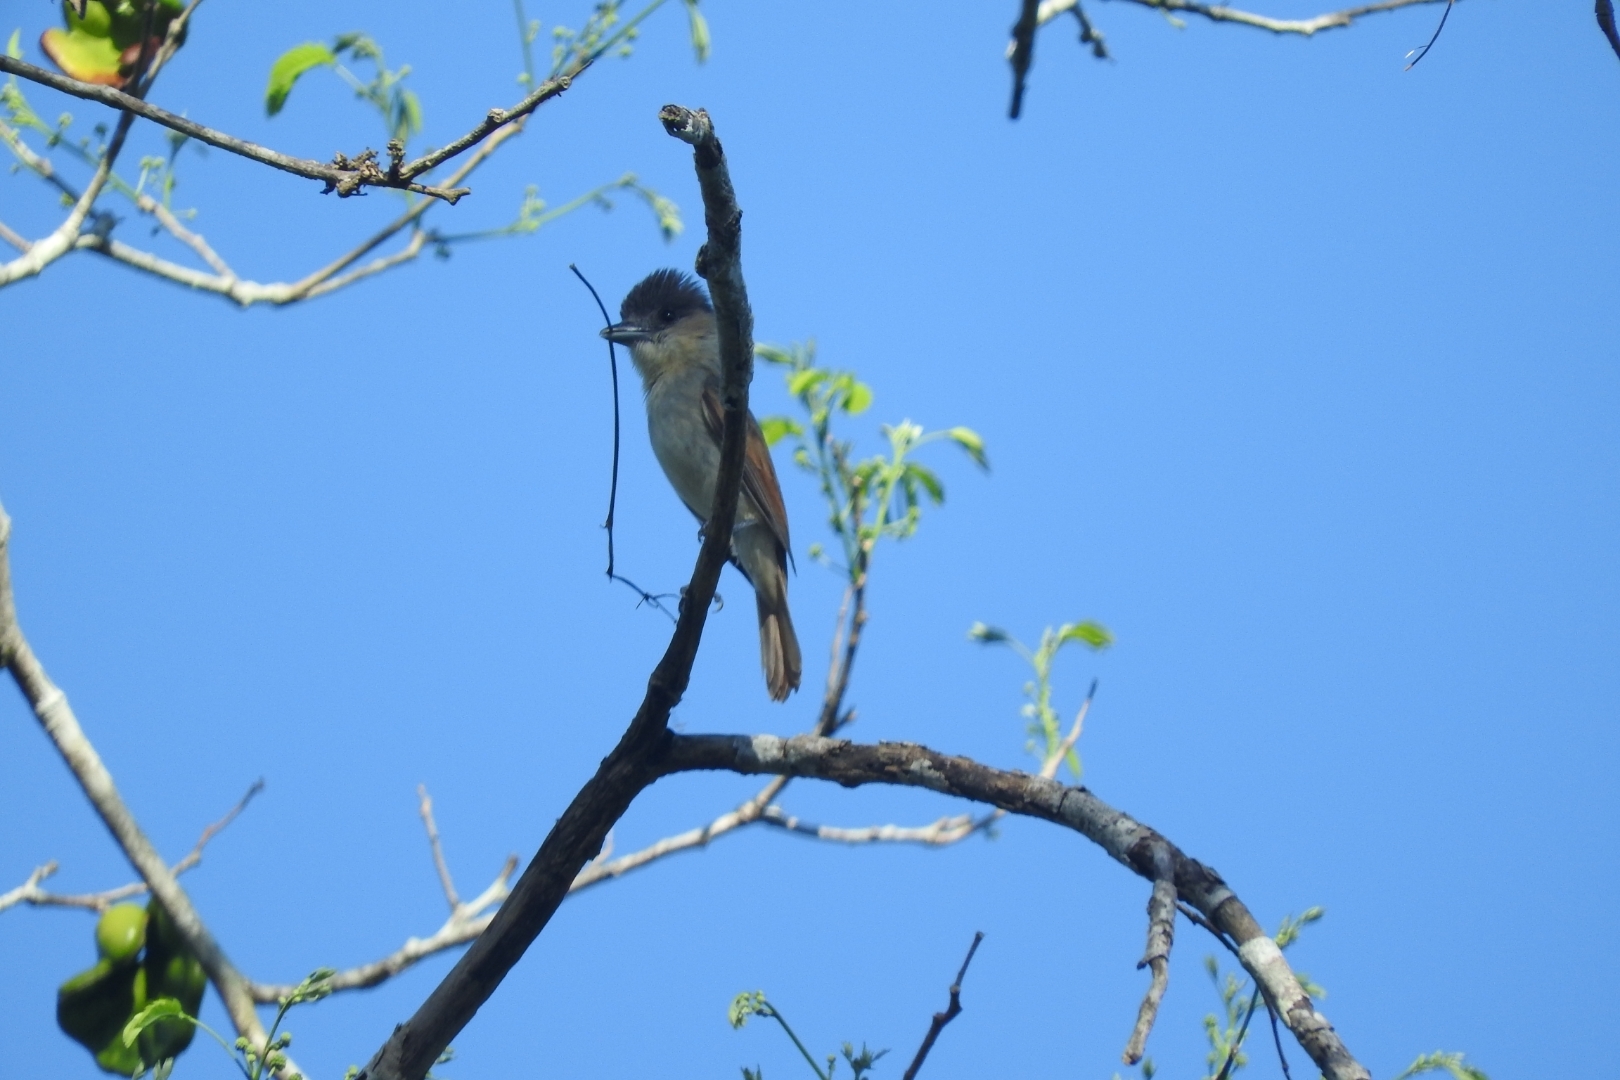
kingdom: Animalia
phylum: Chordata
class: Aves
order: Passeriformes
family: Cotingidae
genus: Pachyramphus
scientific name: Pachyramphus aglaiae
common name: Rose-throated becard
